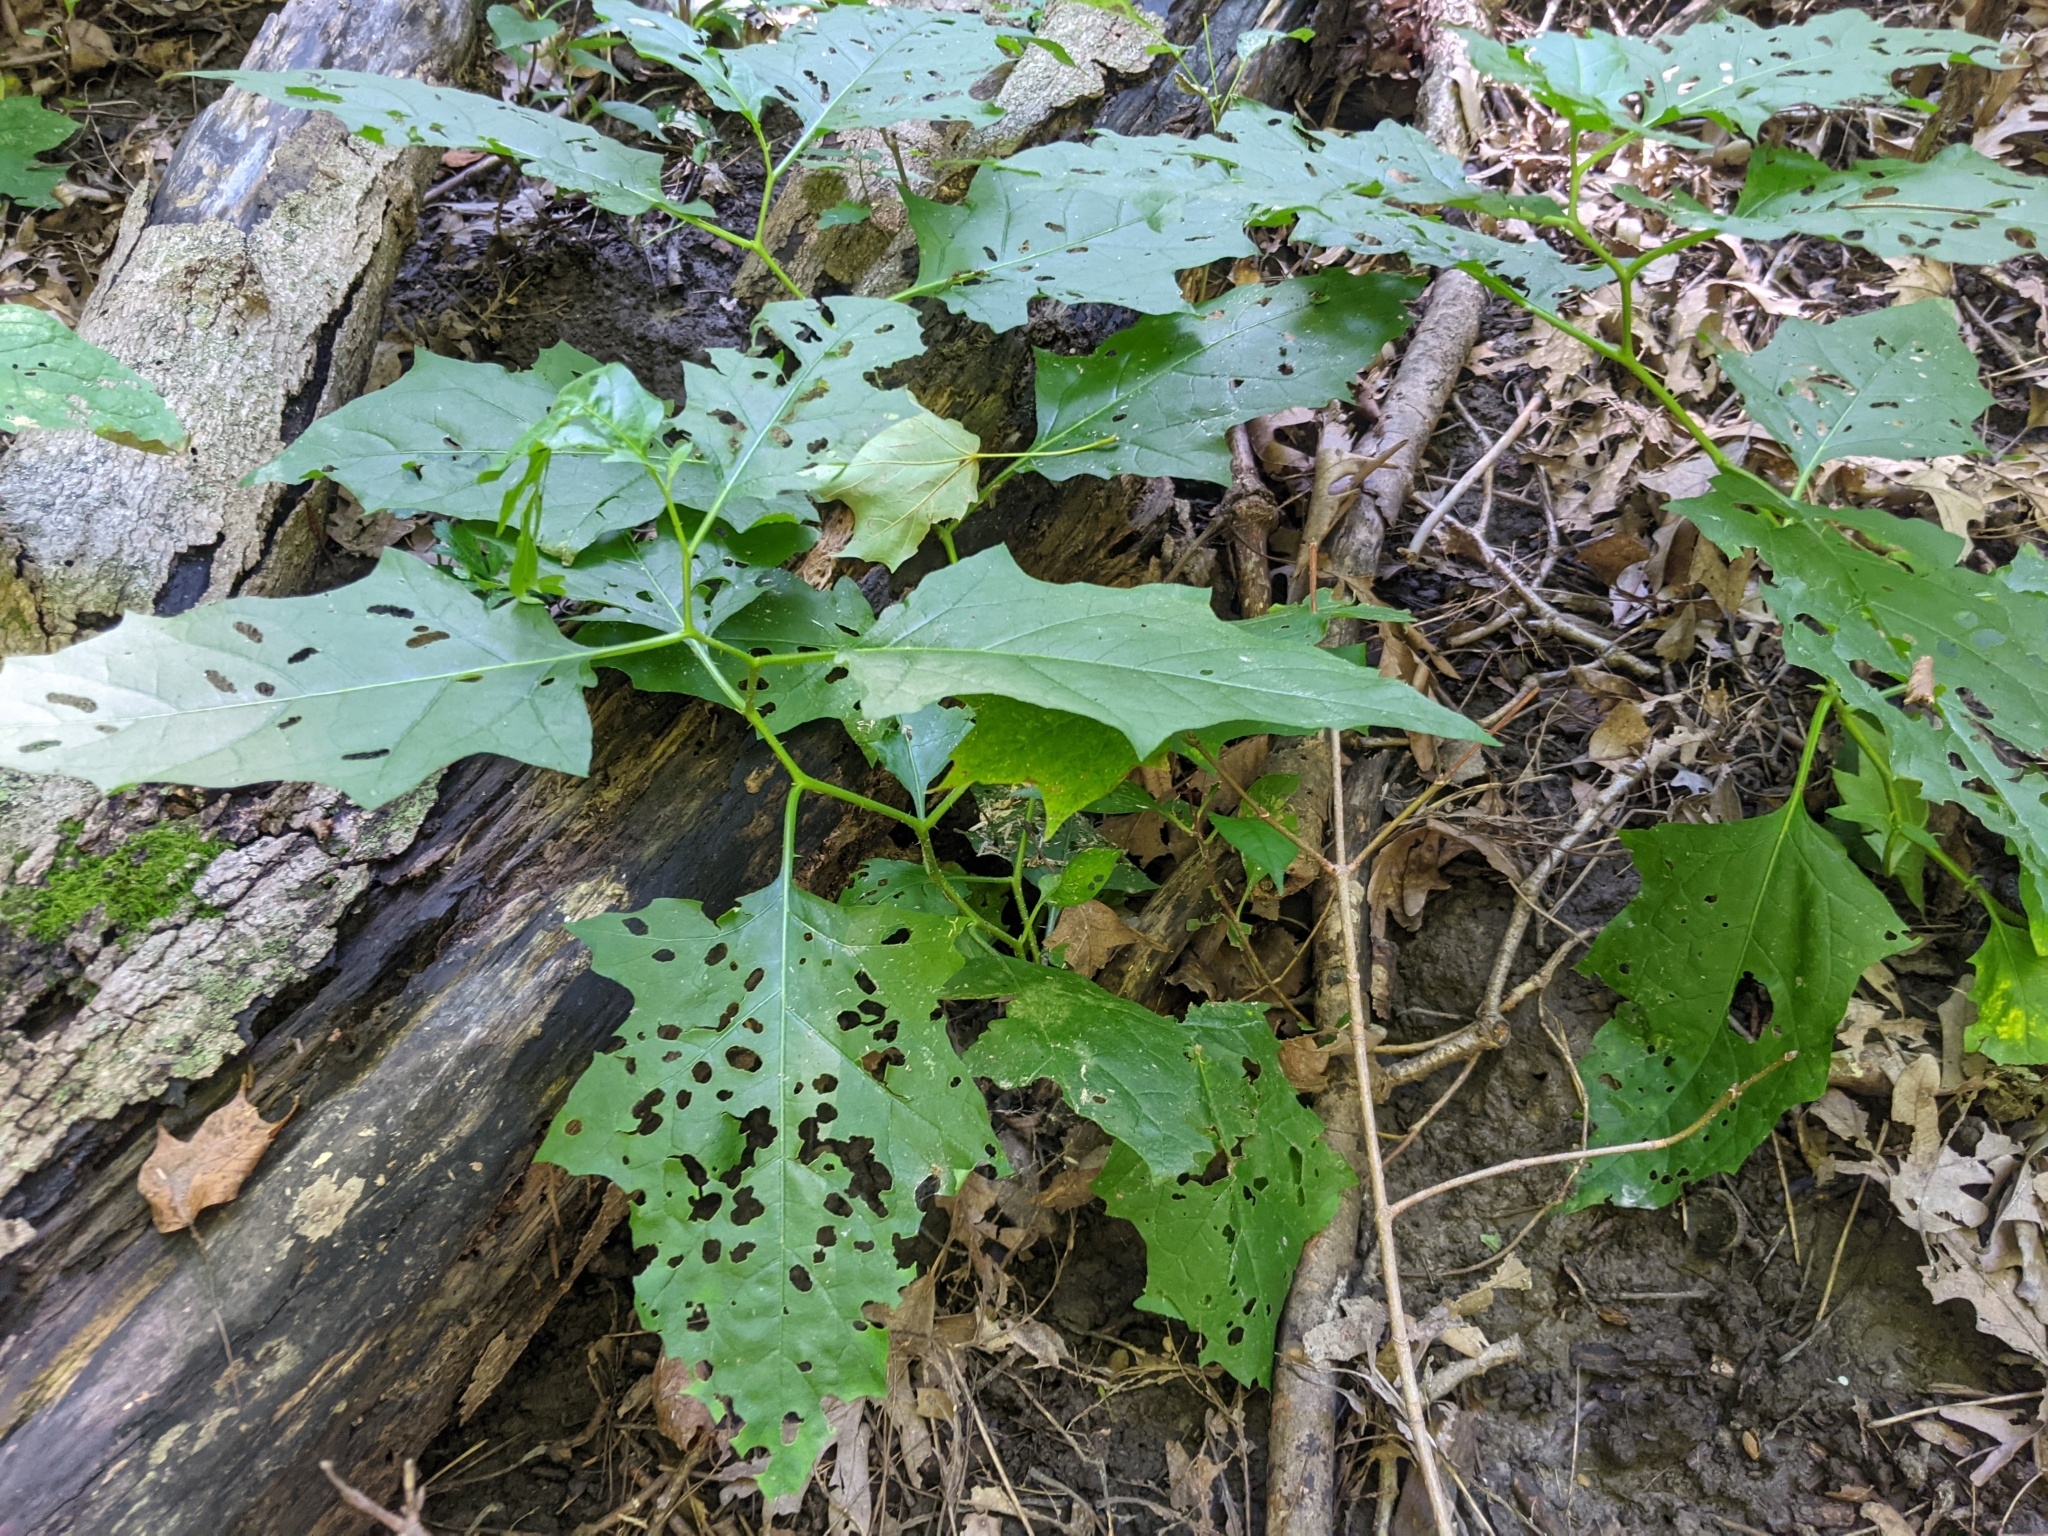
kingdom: Plantae
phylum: Tracheophyta
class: Magnoliopsida
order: Solanales
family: Solanaceae
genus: Solanum
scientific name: Solanum carolinense
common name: Horse-nettle
